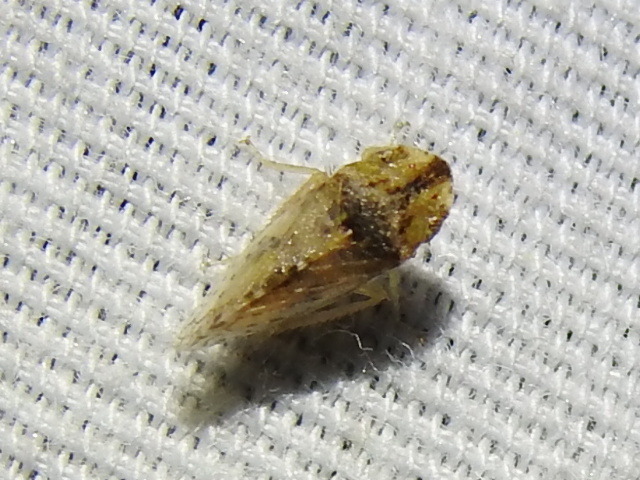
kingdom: Animalia
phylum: Arthropoda
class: Insecta
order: Hemiptera
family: Cicadellidae
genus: Xerophloea
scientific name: Xerophloea viridis
